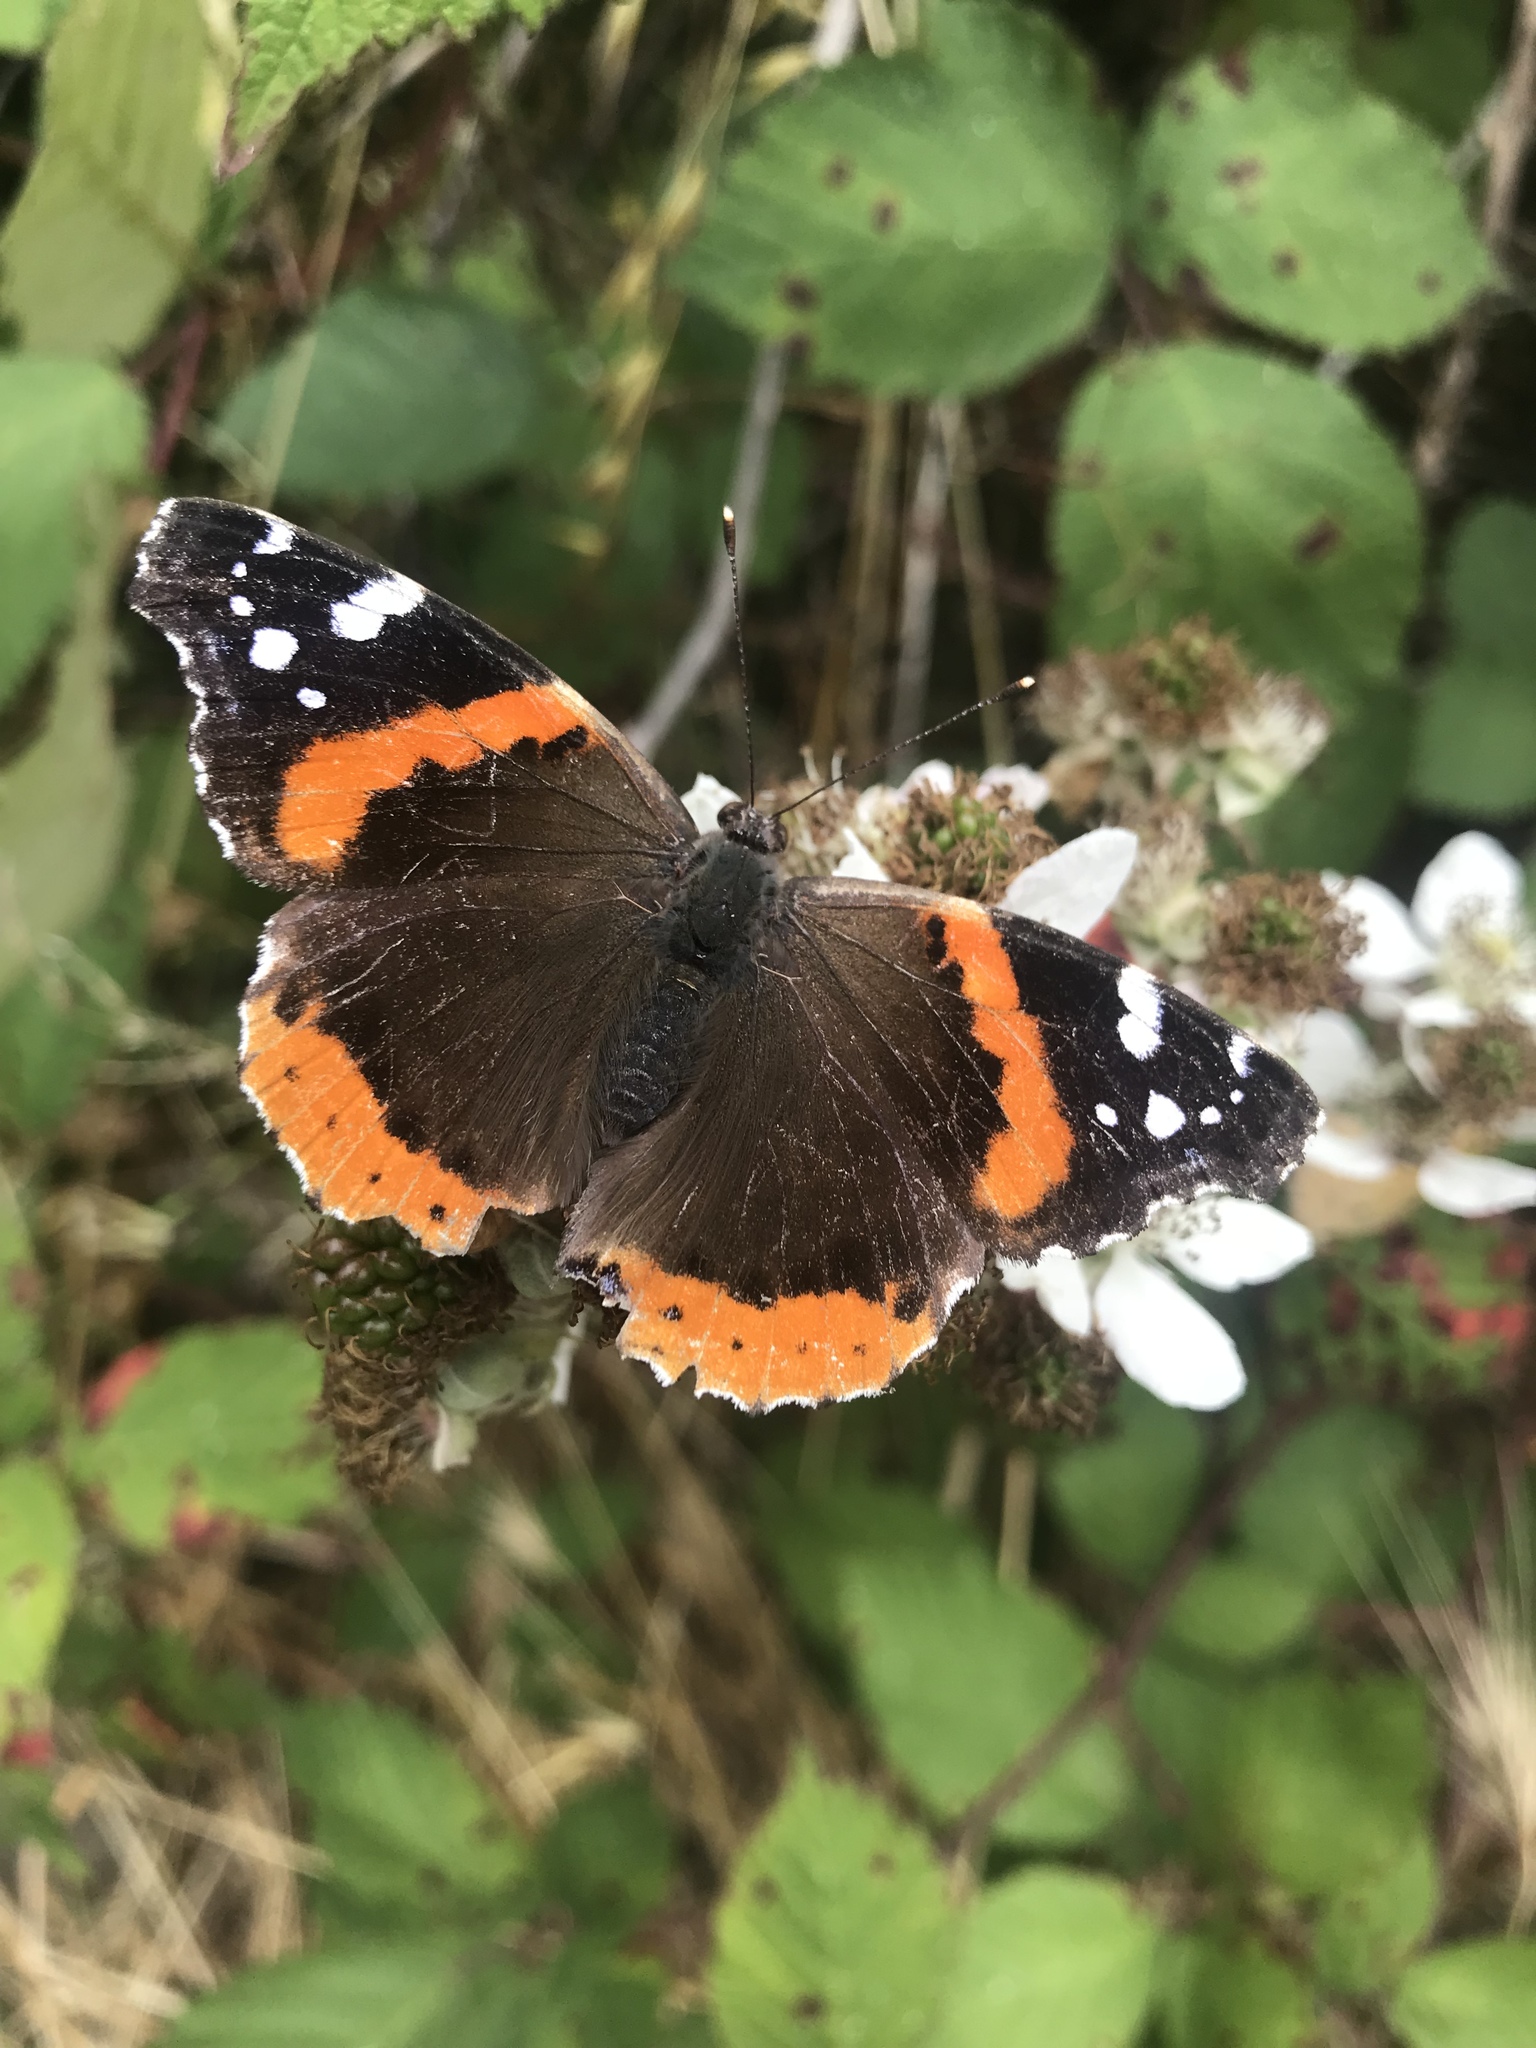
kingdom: Animalia
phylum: Arthropoda
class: Insecta
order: Lepidoptera
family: Nymphalidae
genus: Vanessa
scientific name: Vanessa atalanta
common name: Red admiral
